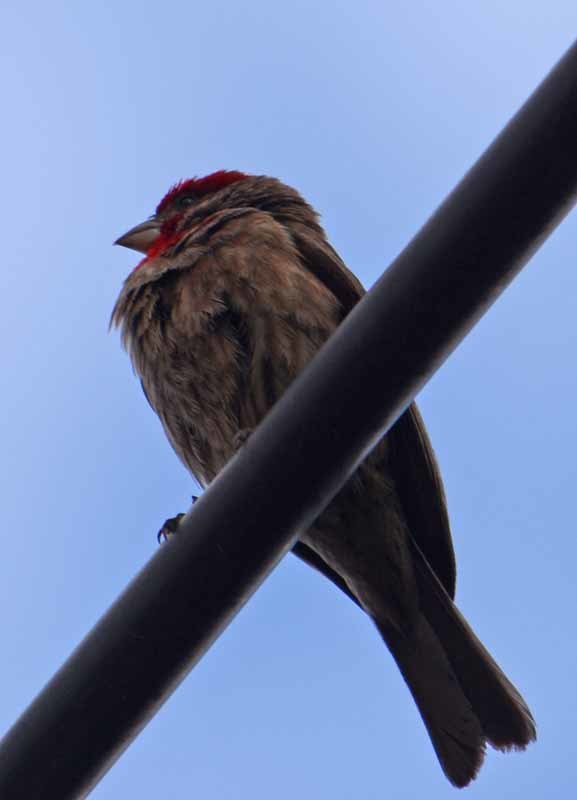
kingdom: Animalia
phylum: Chordata
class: Aves
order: Passeriformes
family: Fringillidae
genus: Haemorhous
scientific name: Haemorhous mexicanus
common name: House finch
